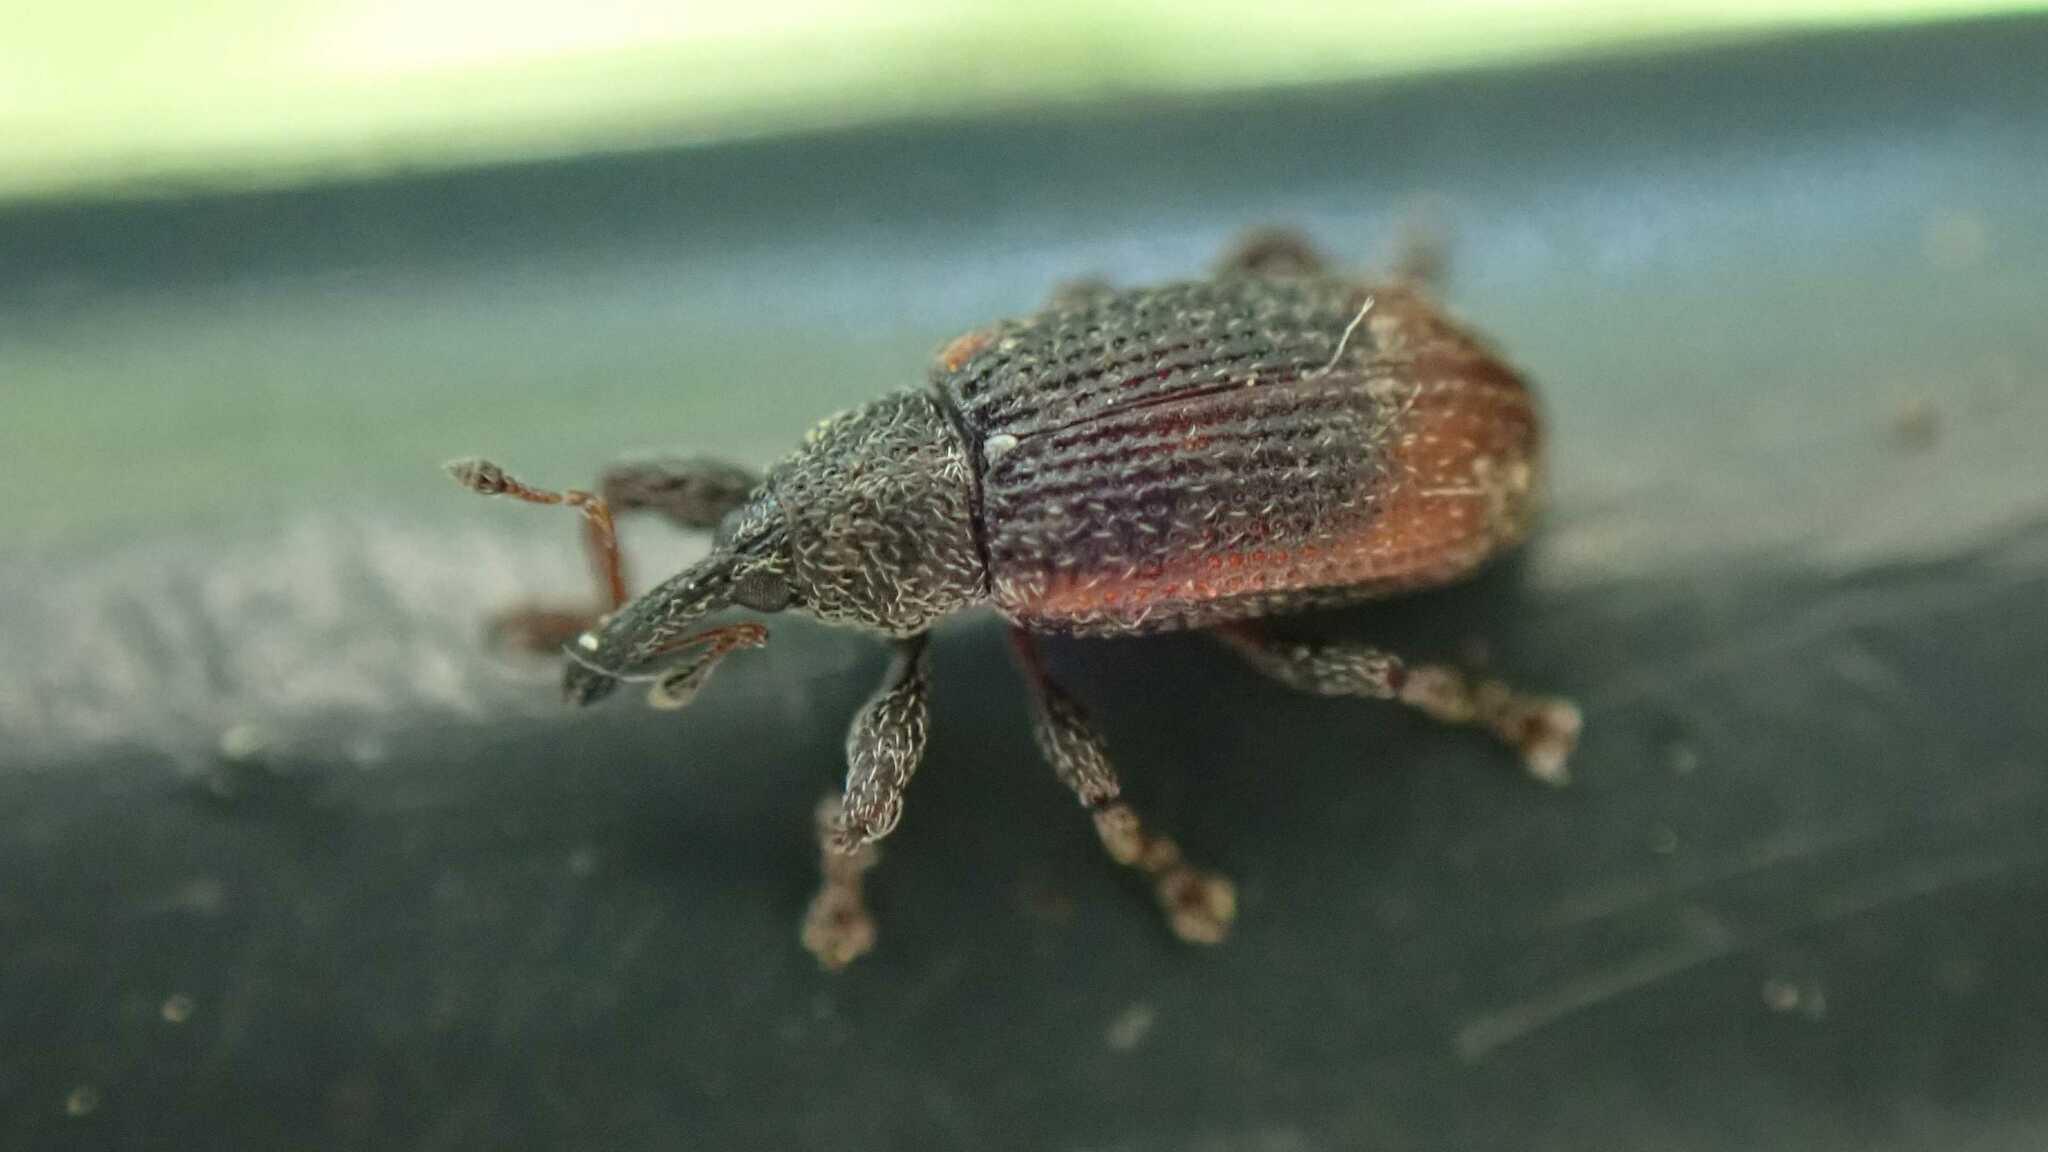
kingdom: Animalia
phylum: Arthropoda
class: Insecta
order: Coleoptera
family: Curculionidae
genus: Bradybatus
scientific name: Bradybatus kellneri
